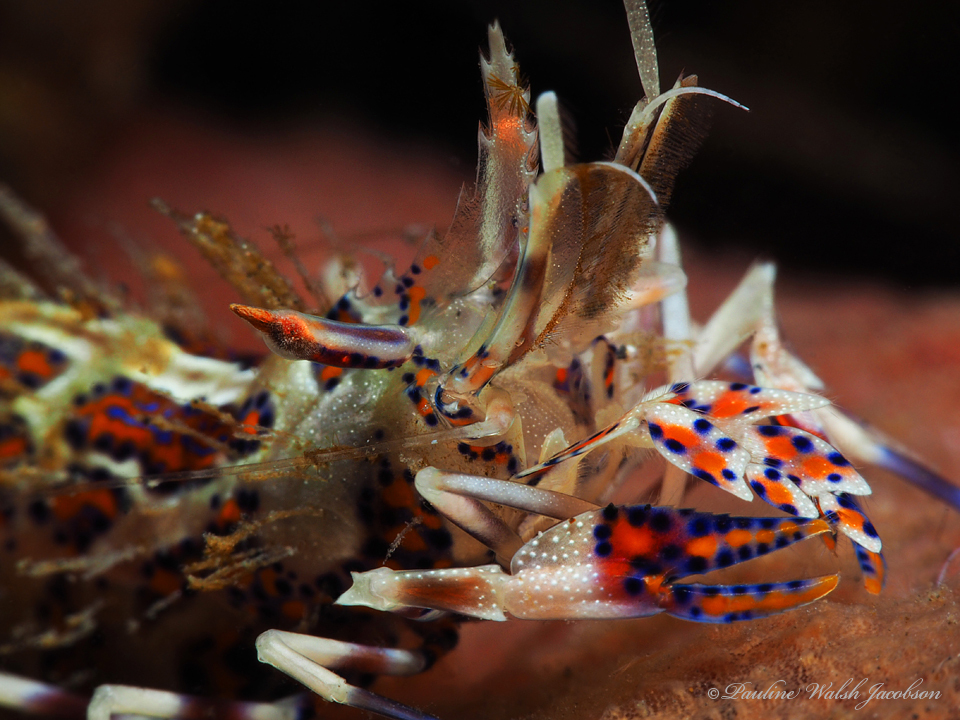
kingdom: Animalia
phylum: Arthropoda
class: Malacostraca
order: Decapoda
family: Palaemonidae
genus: Phyllognathia
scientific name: Phyllognathia ceratophthalma
